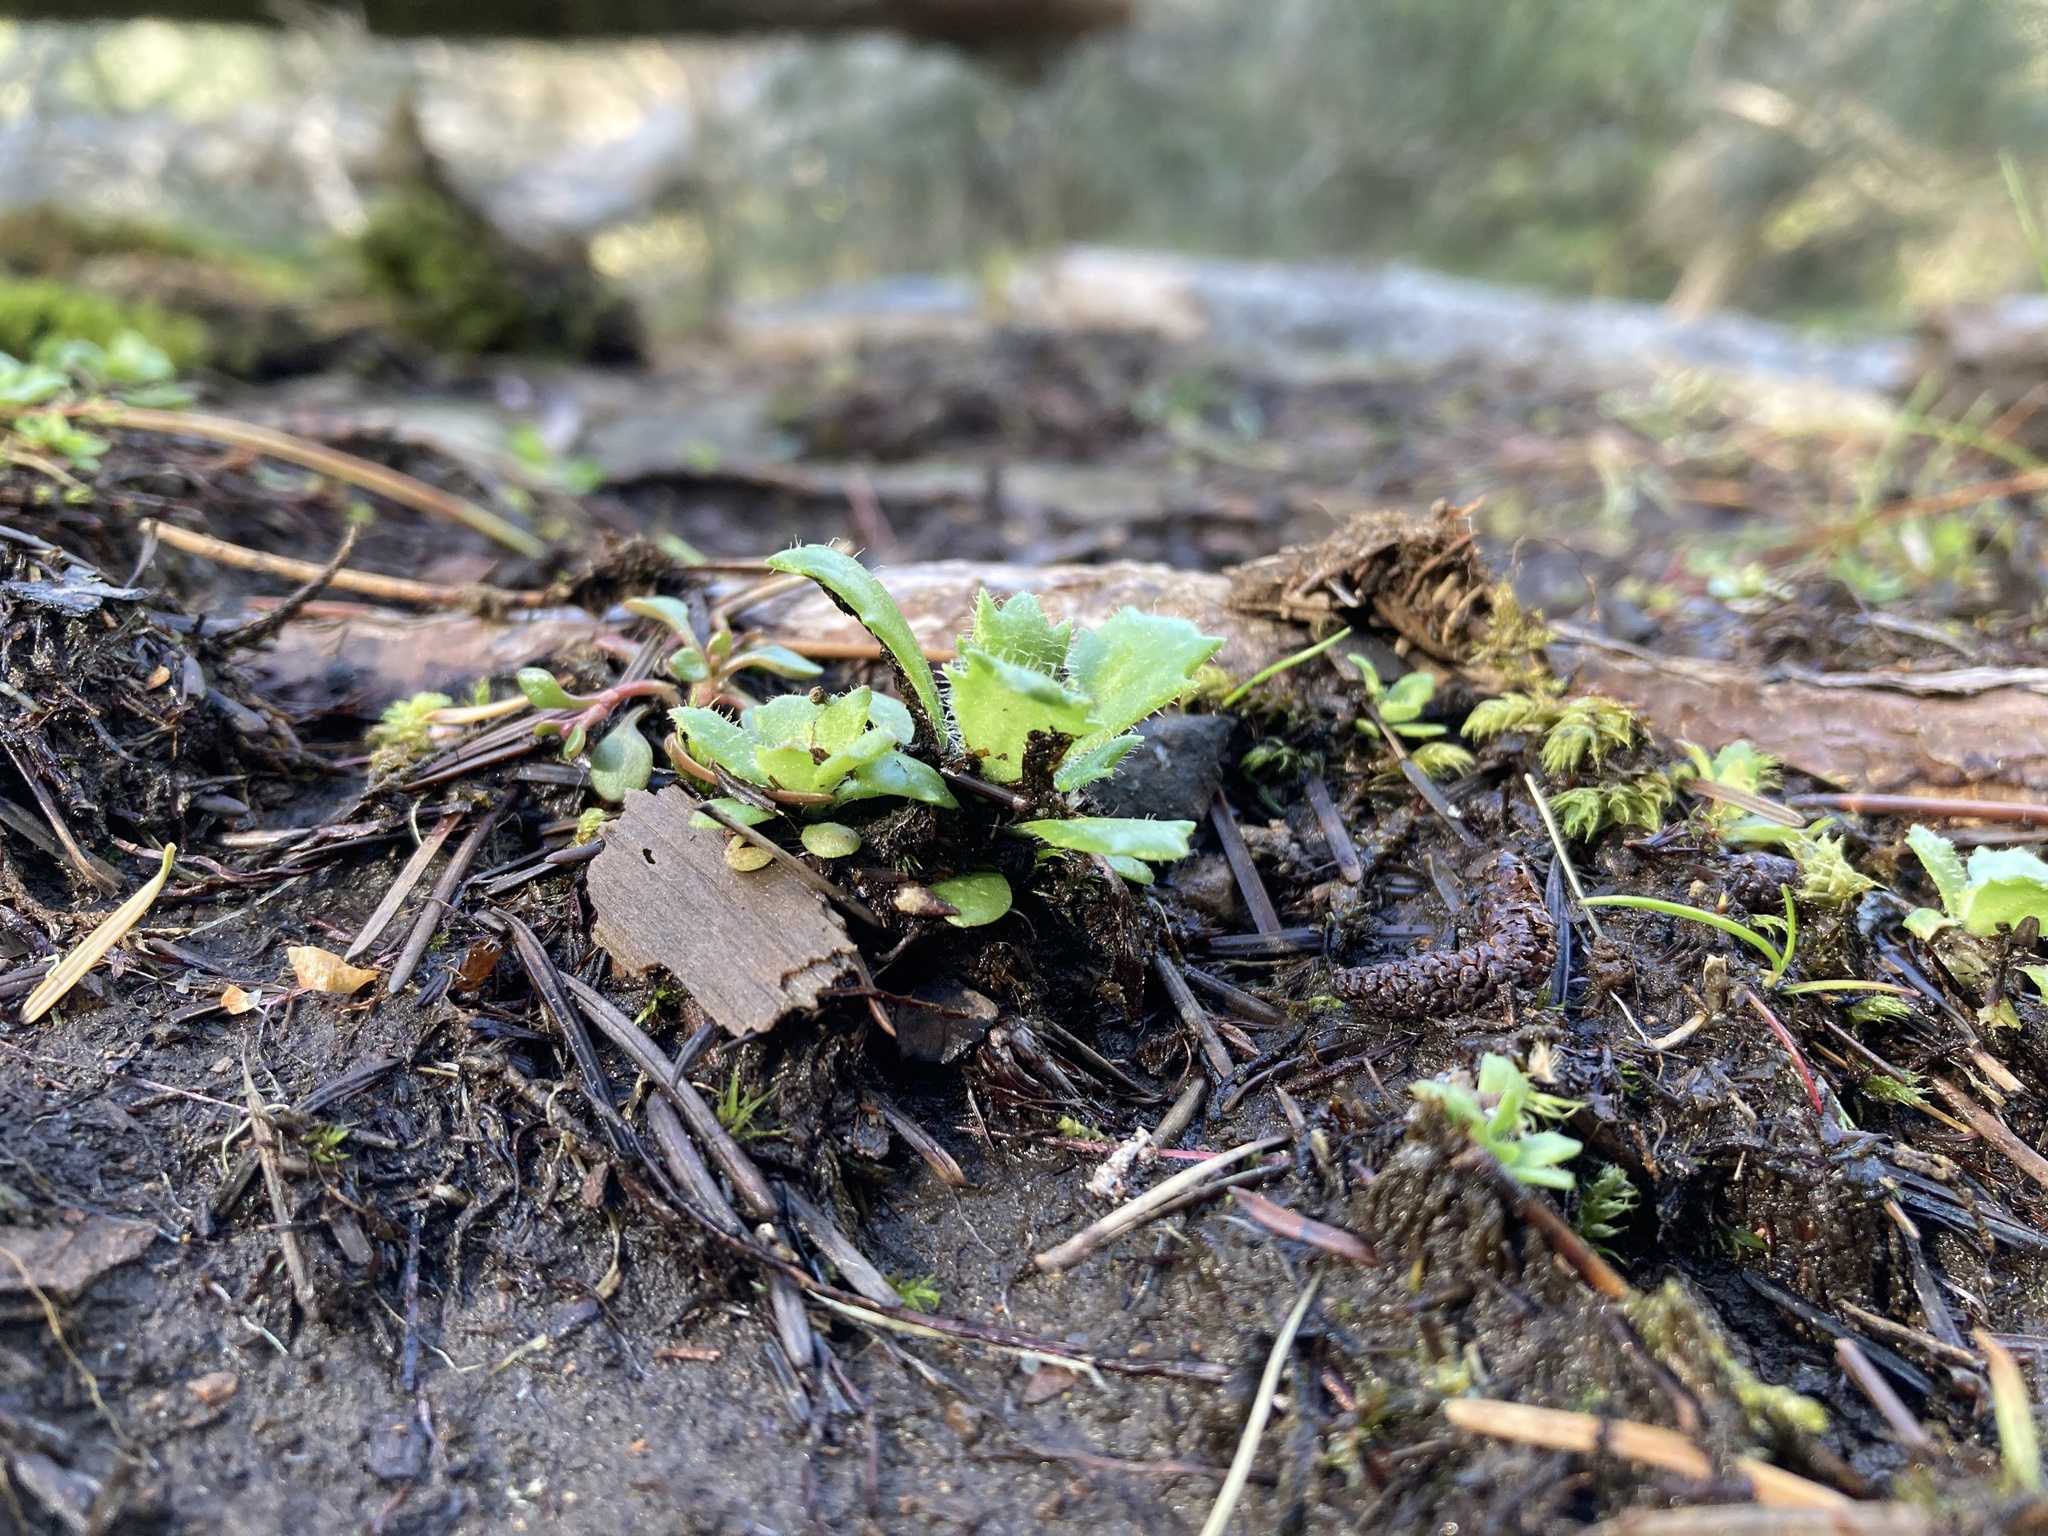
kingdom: Plantae
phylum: Tracheophyta
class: Magnoliopsida
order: Saxifragales
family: Saxifragaceae
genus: Micranthes
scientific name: Micranthes ferruginea
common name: Rusty saxifrage
